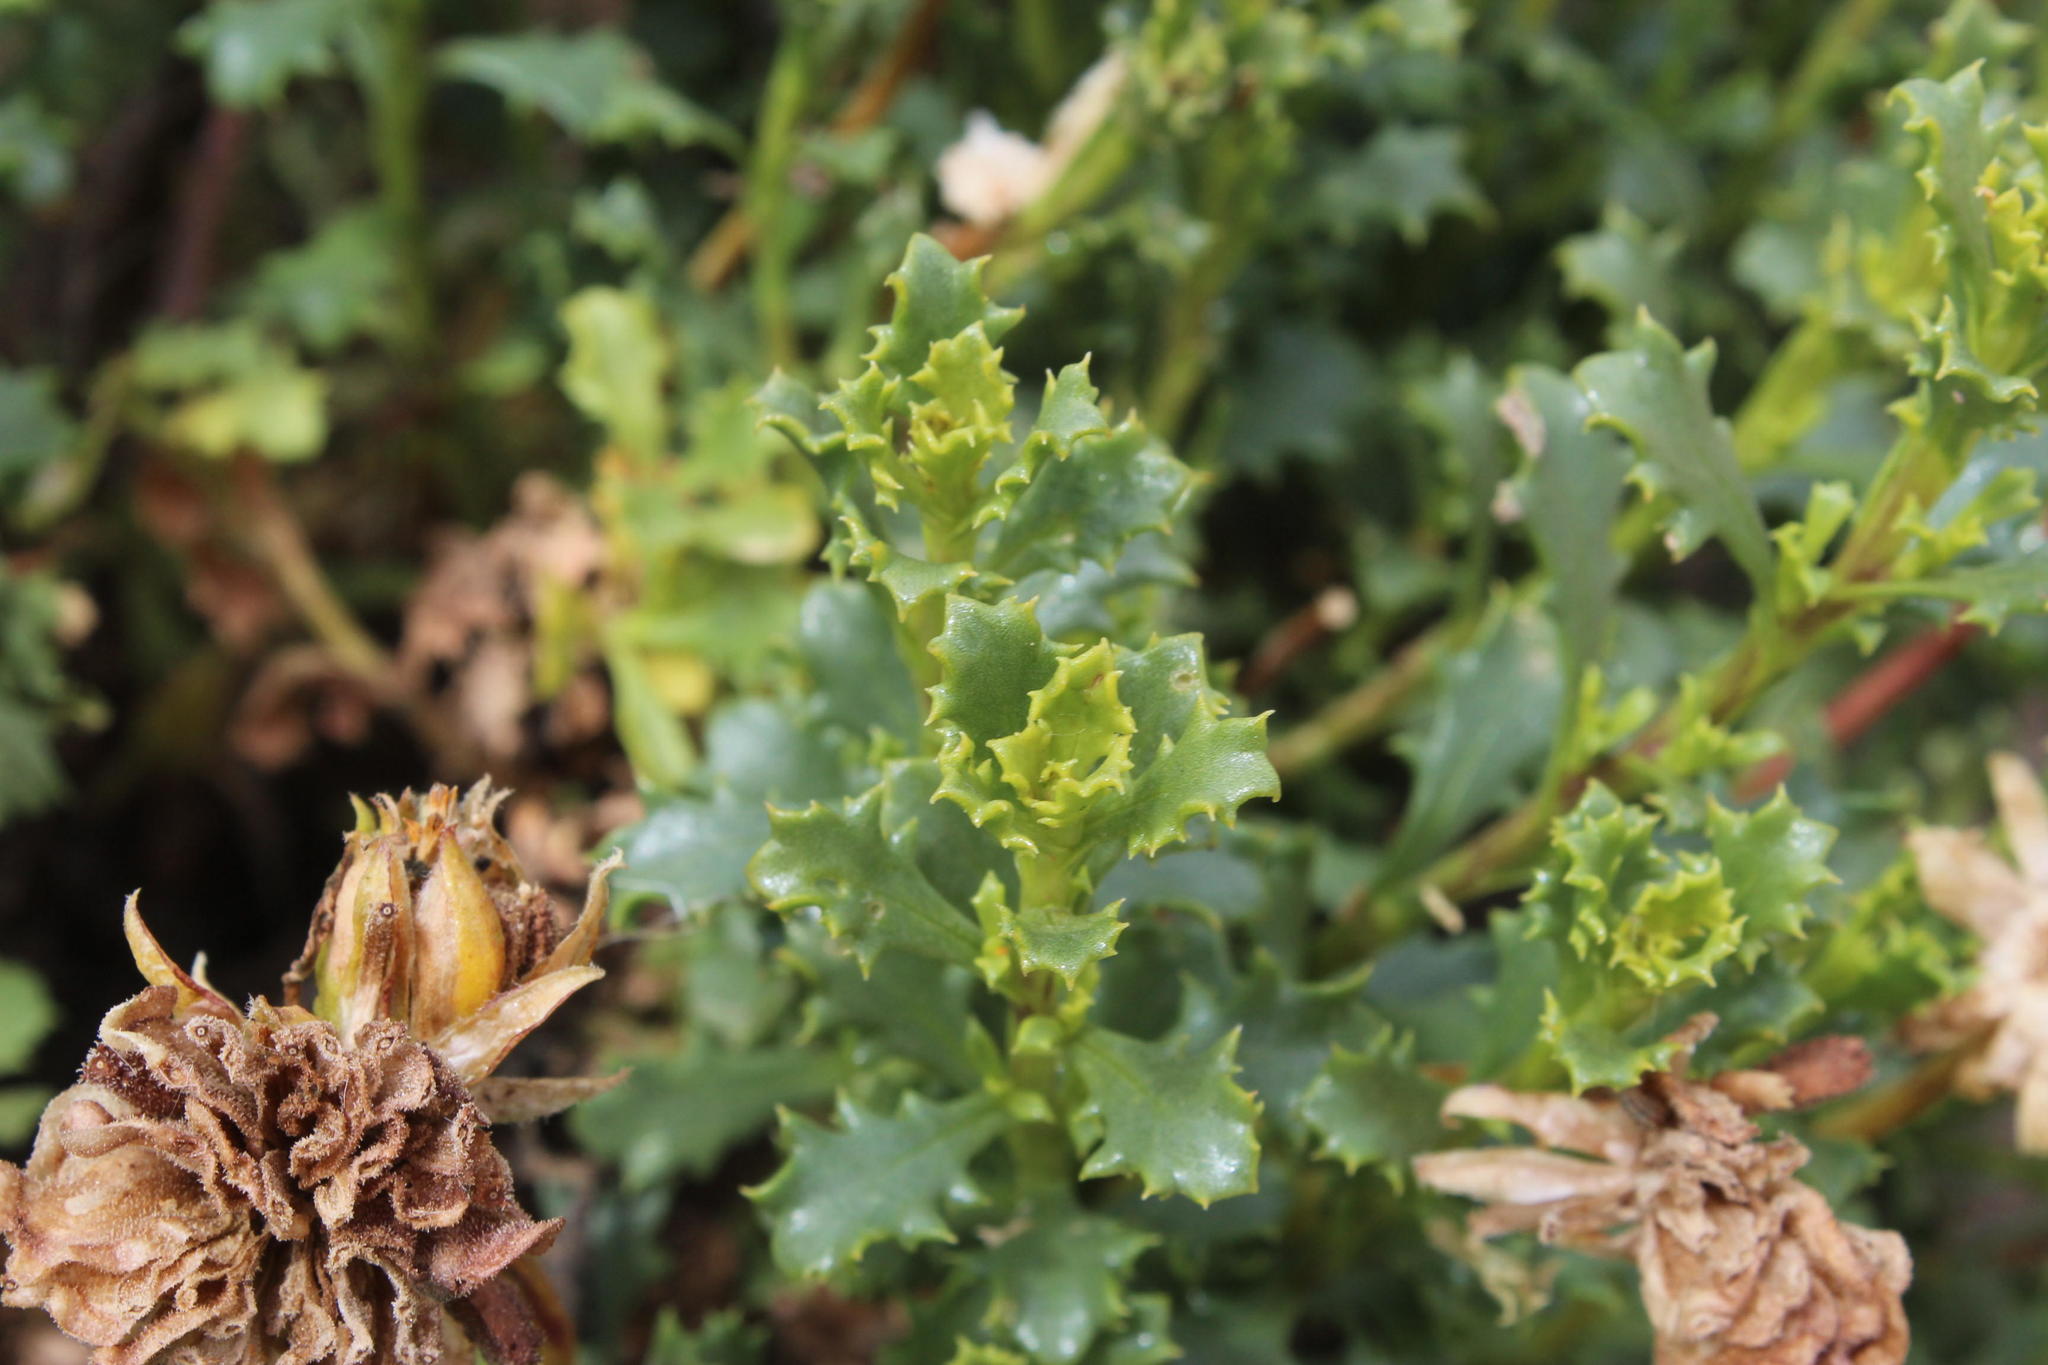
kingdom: Plantae
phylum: Tracheophyta
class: Magnoliopsida
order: Asterales
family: Asteraceae
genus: Dimorphotheca
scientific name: Dimorphotheca cuneata
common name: Daisy
